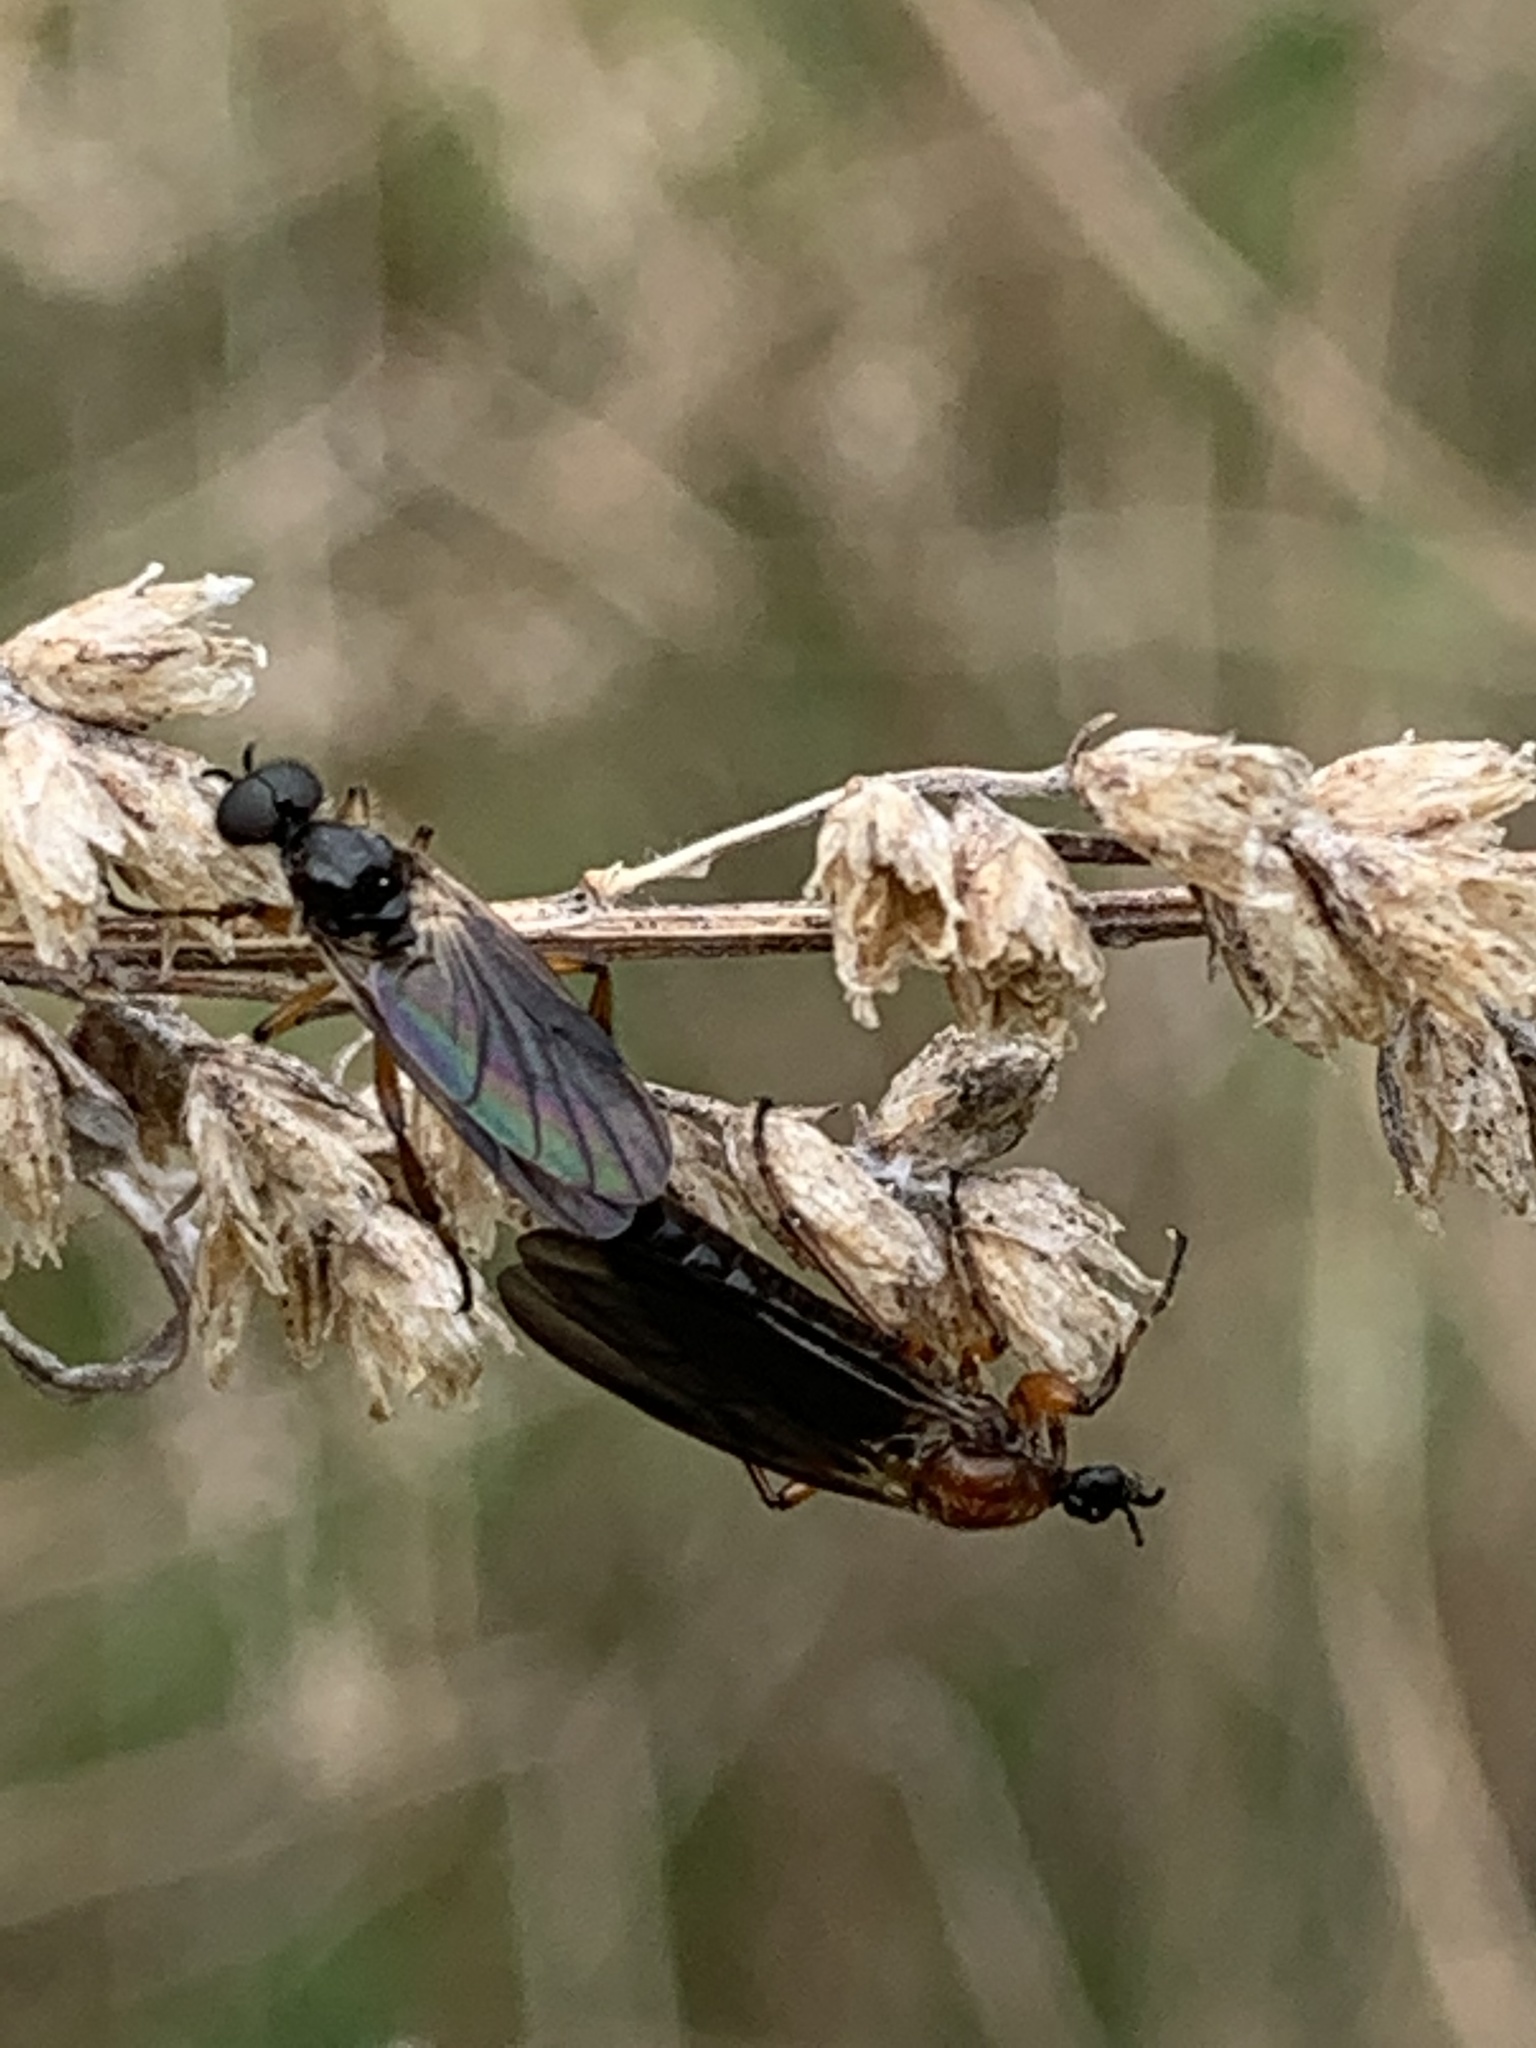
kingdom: Animalia
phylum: Arthropoda
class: Insecta
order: Diptera
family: Bibionidae
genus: Bibio
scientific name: Bibio articulatus
